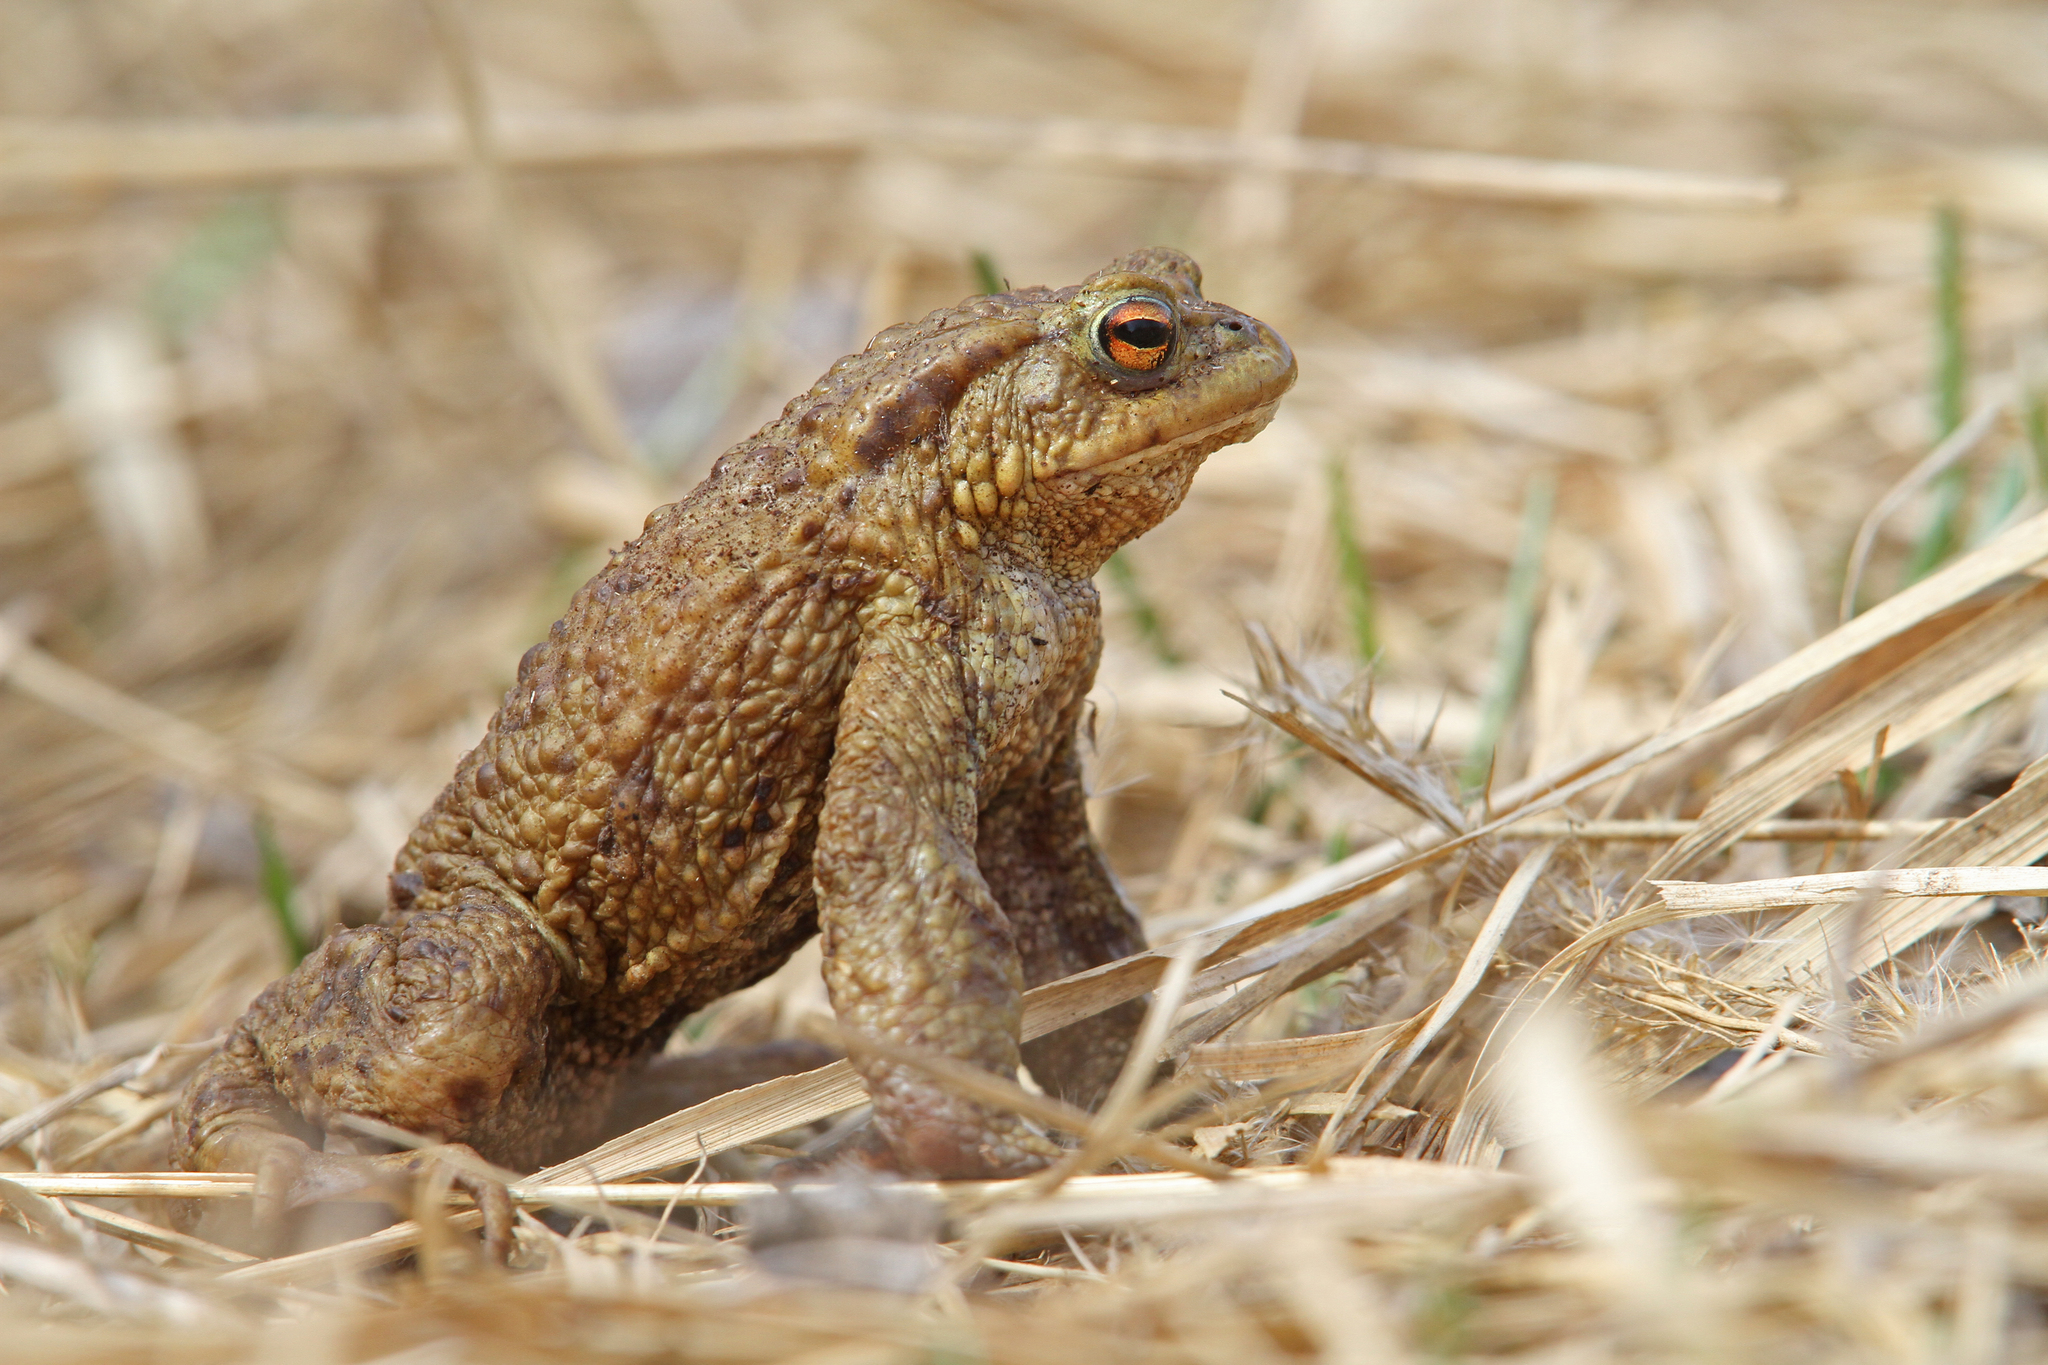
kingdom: Animalia
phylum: Chordata
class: Amphibia
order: Anura
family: Bufonidae
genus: Bufo
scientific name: Bufo bufo
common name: Common toad
